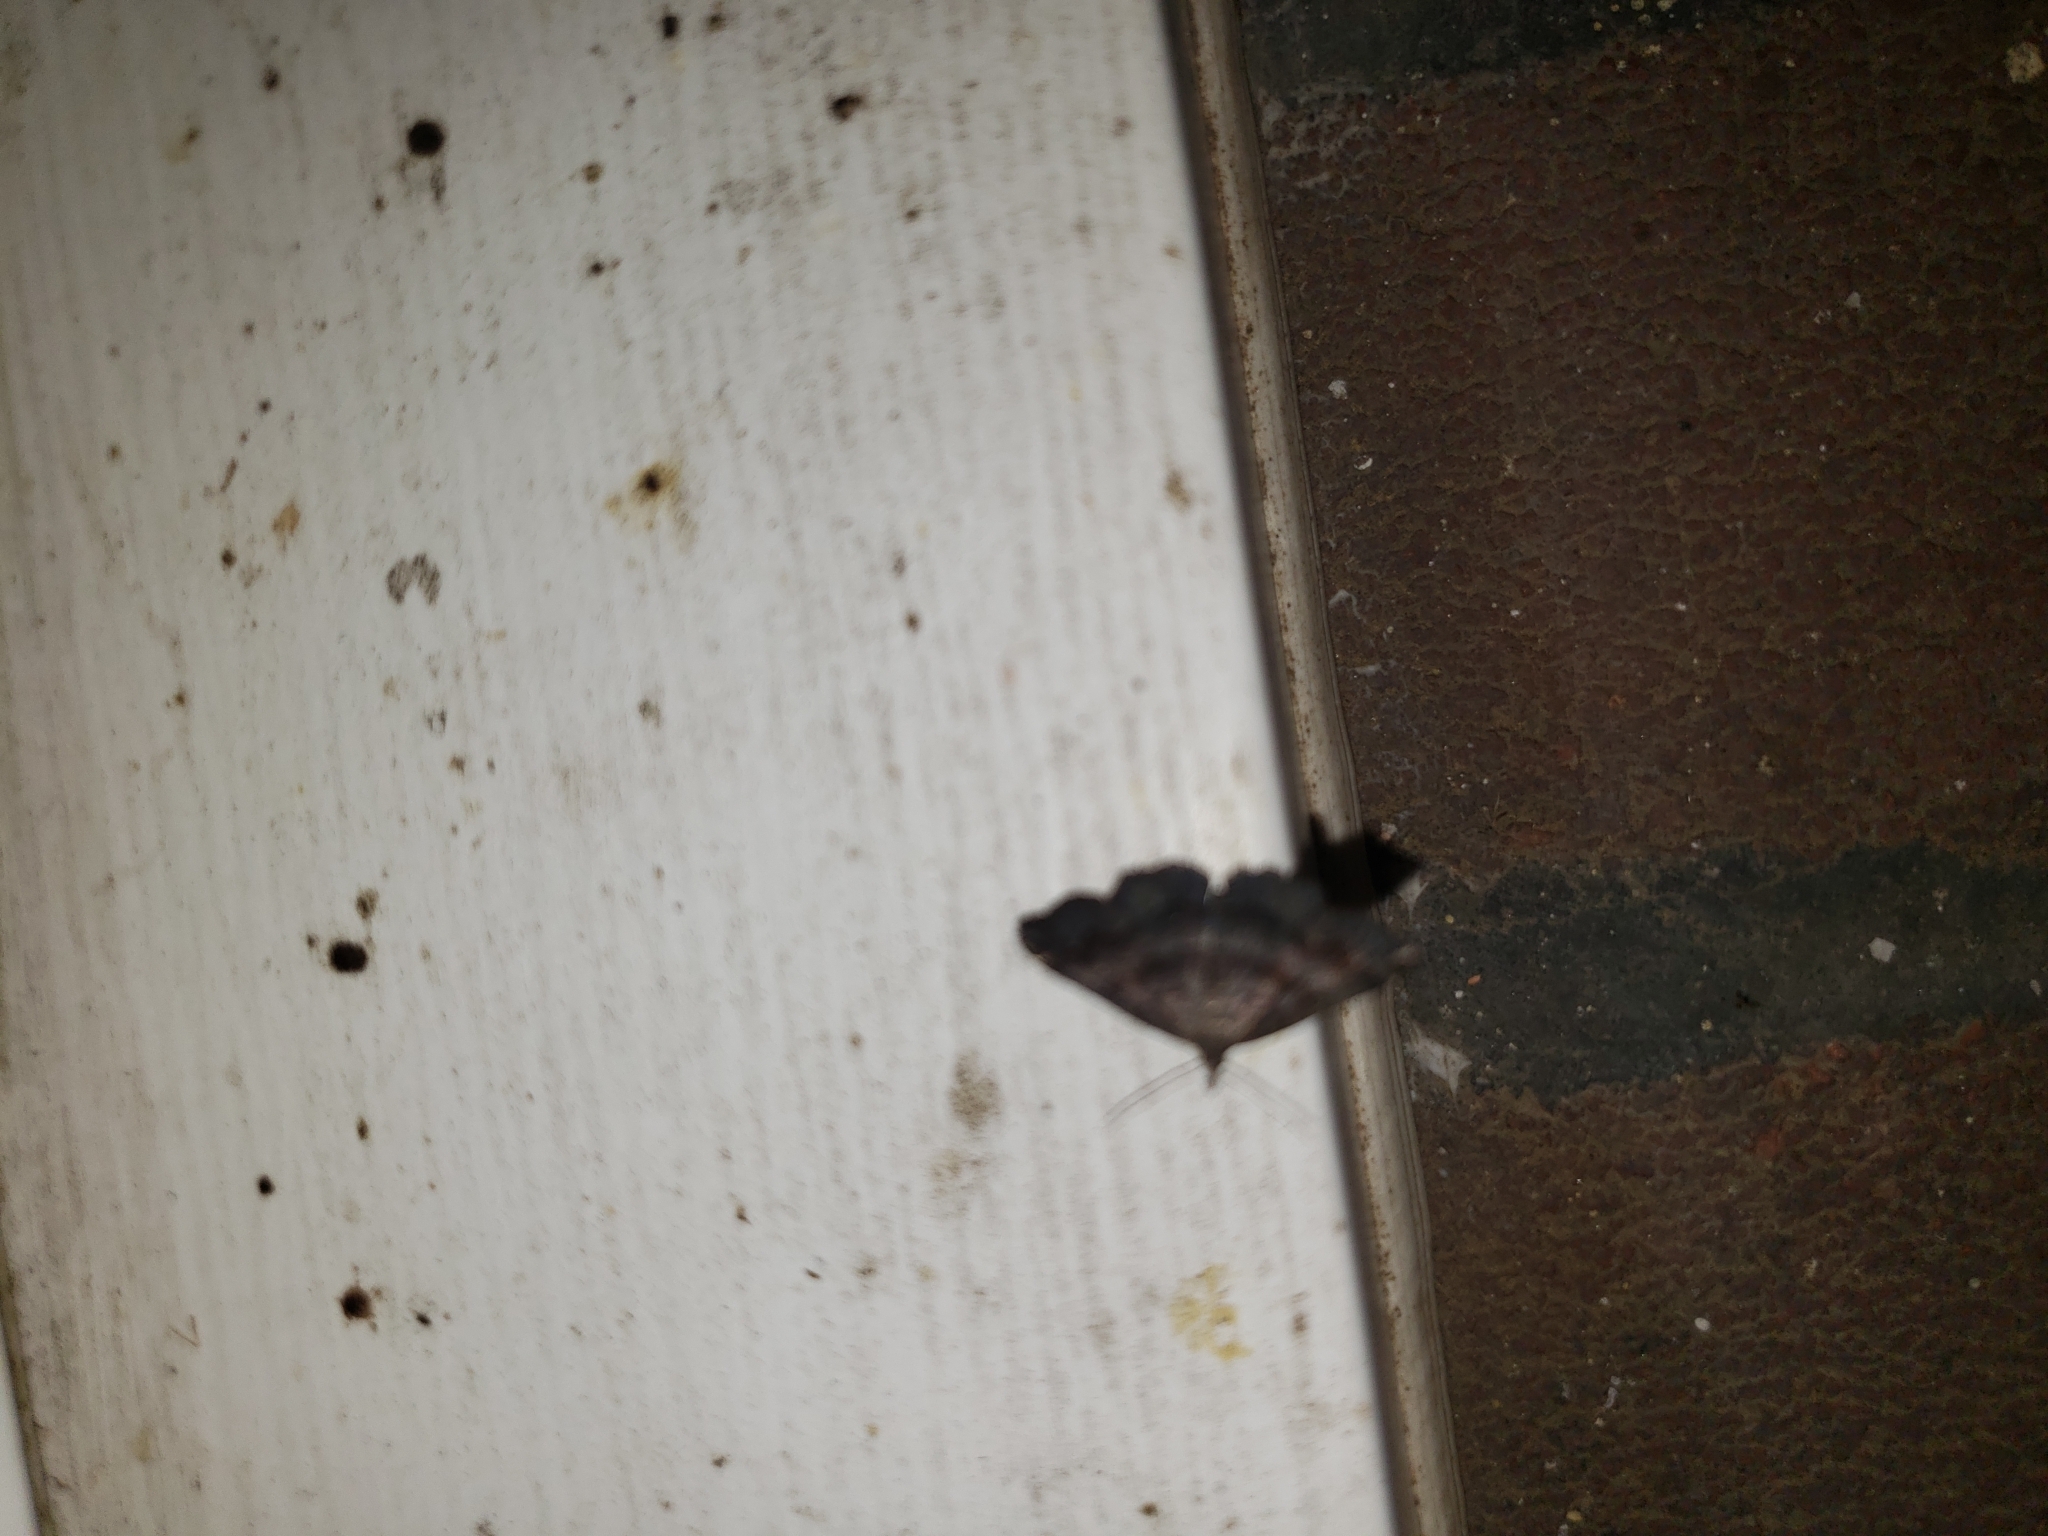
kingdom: Animalia
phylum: Arthropoda
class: Insecta
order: Lepidoptera
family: Erebidae
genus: Phalaenostola
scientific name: Phalaenostola larentioides
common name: Black-banded owlet
